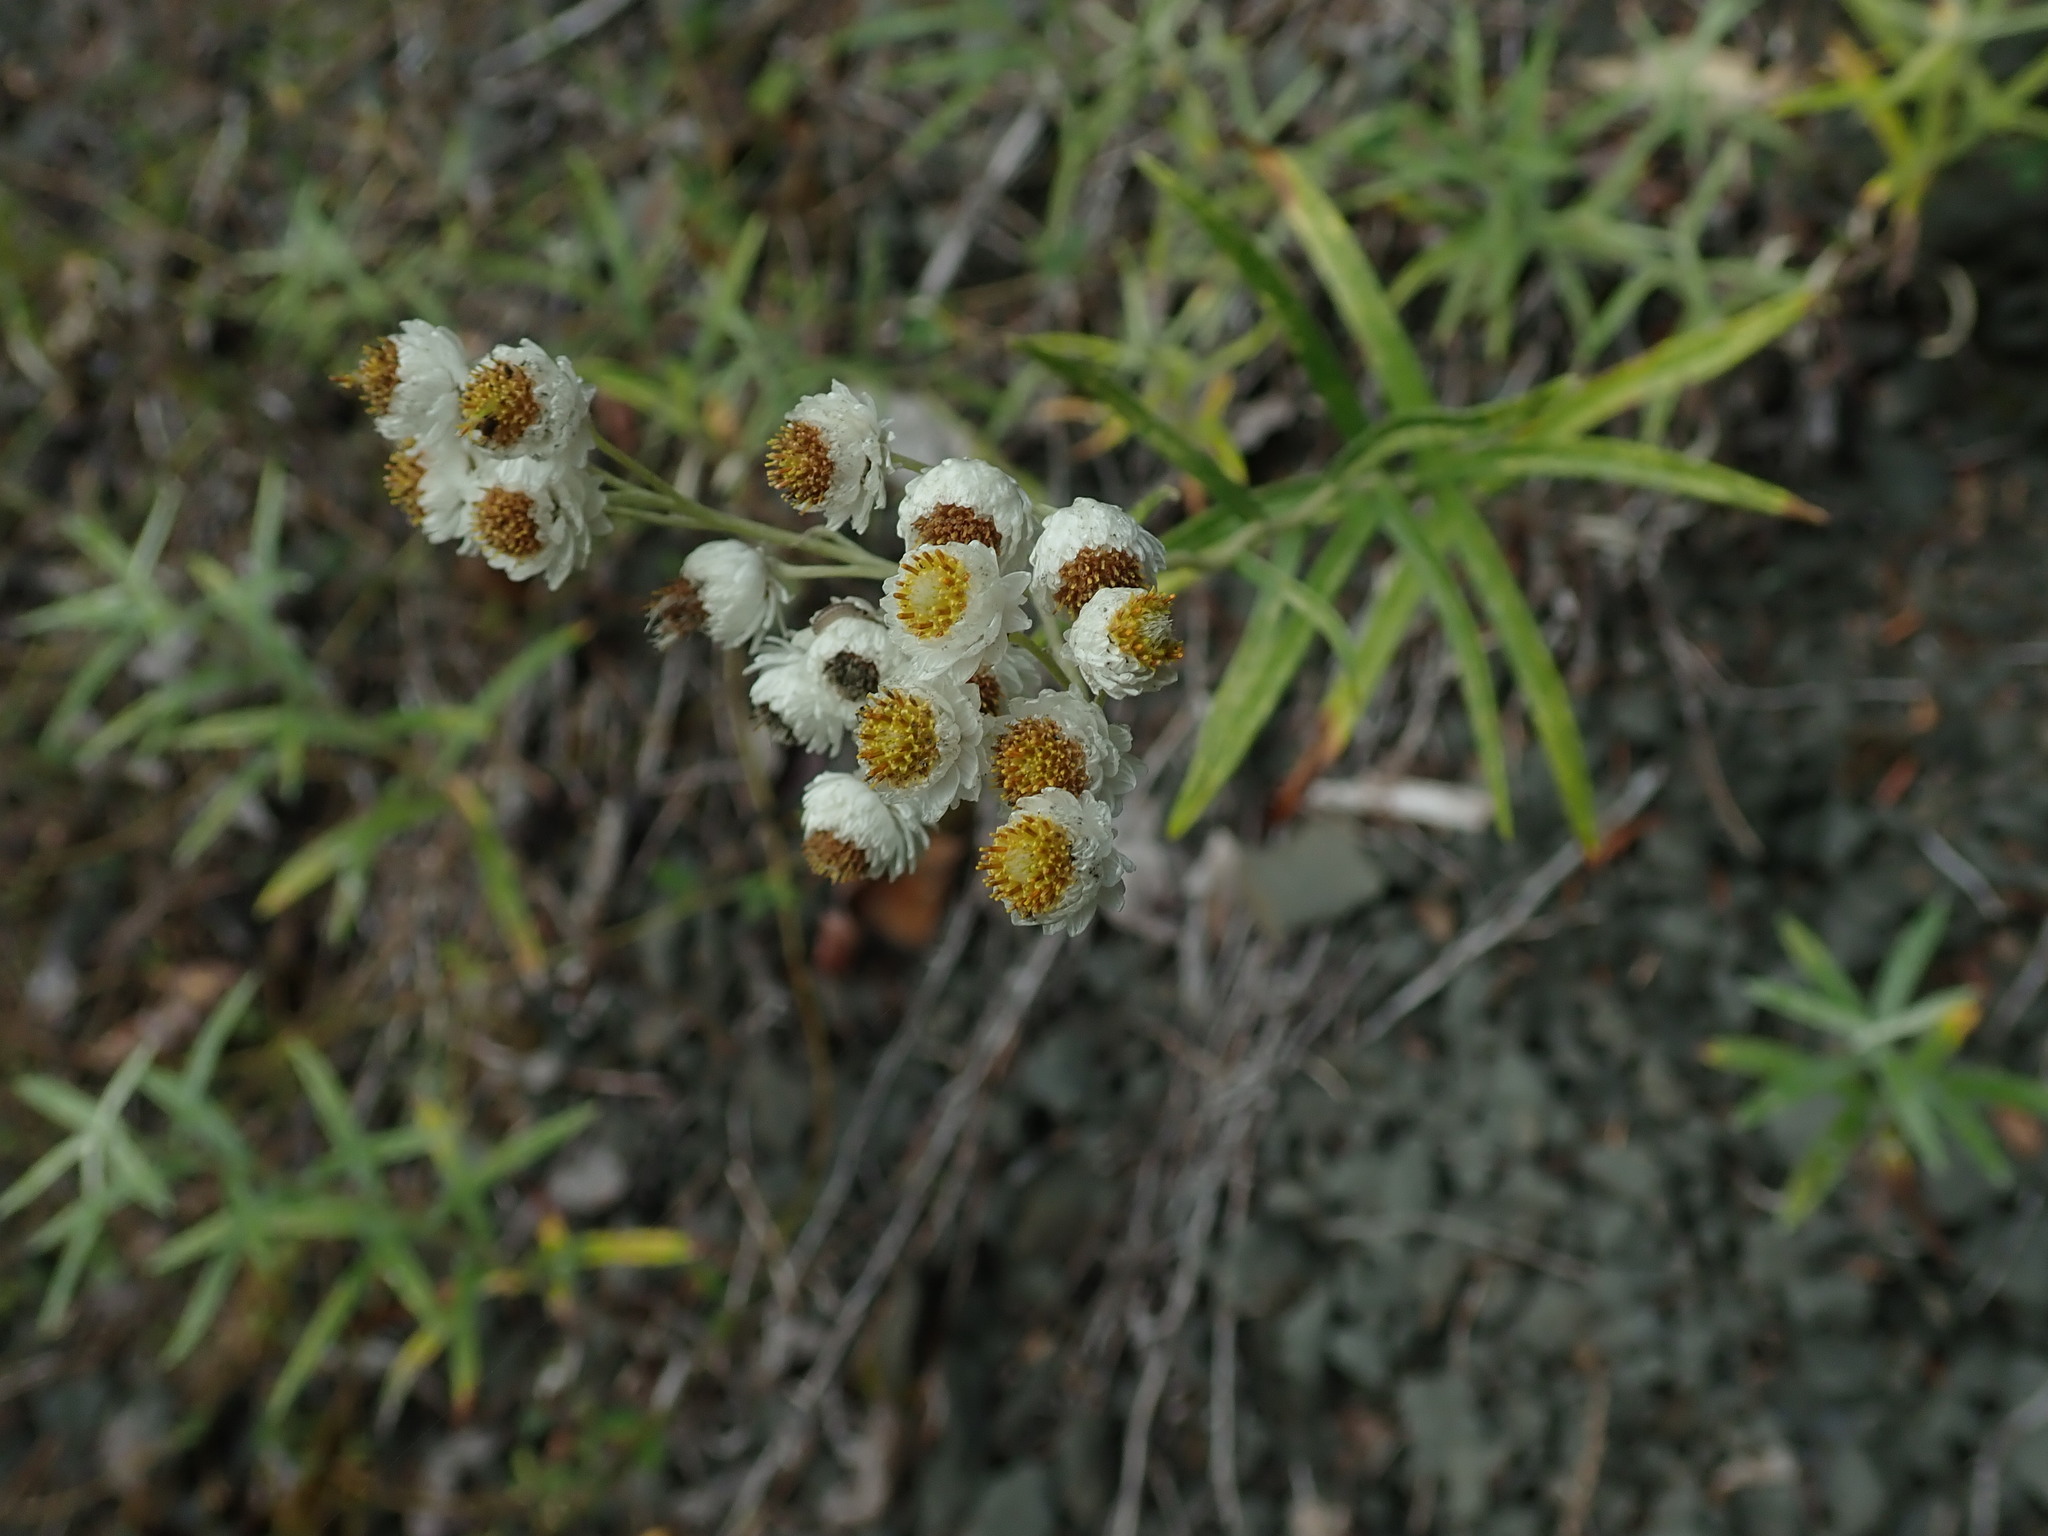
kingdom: Plantae
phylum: Tracheophyta
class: Magnoliopsida
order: Asterales
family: Asteraceae
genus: Anaphalis
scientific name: Anaphalis margaritacea
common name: Pearly everlasting
